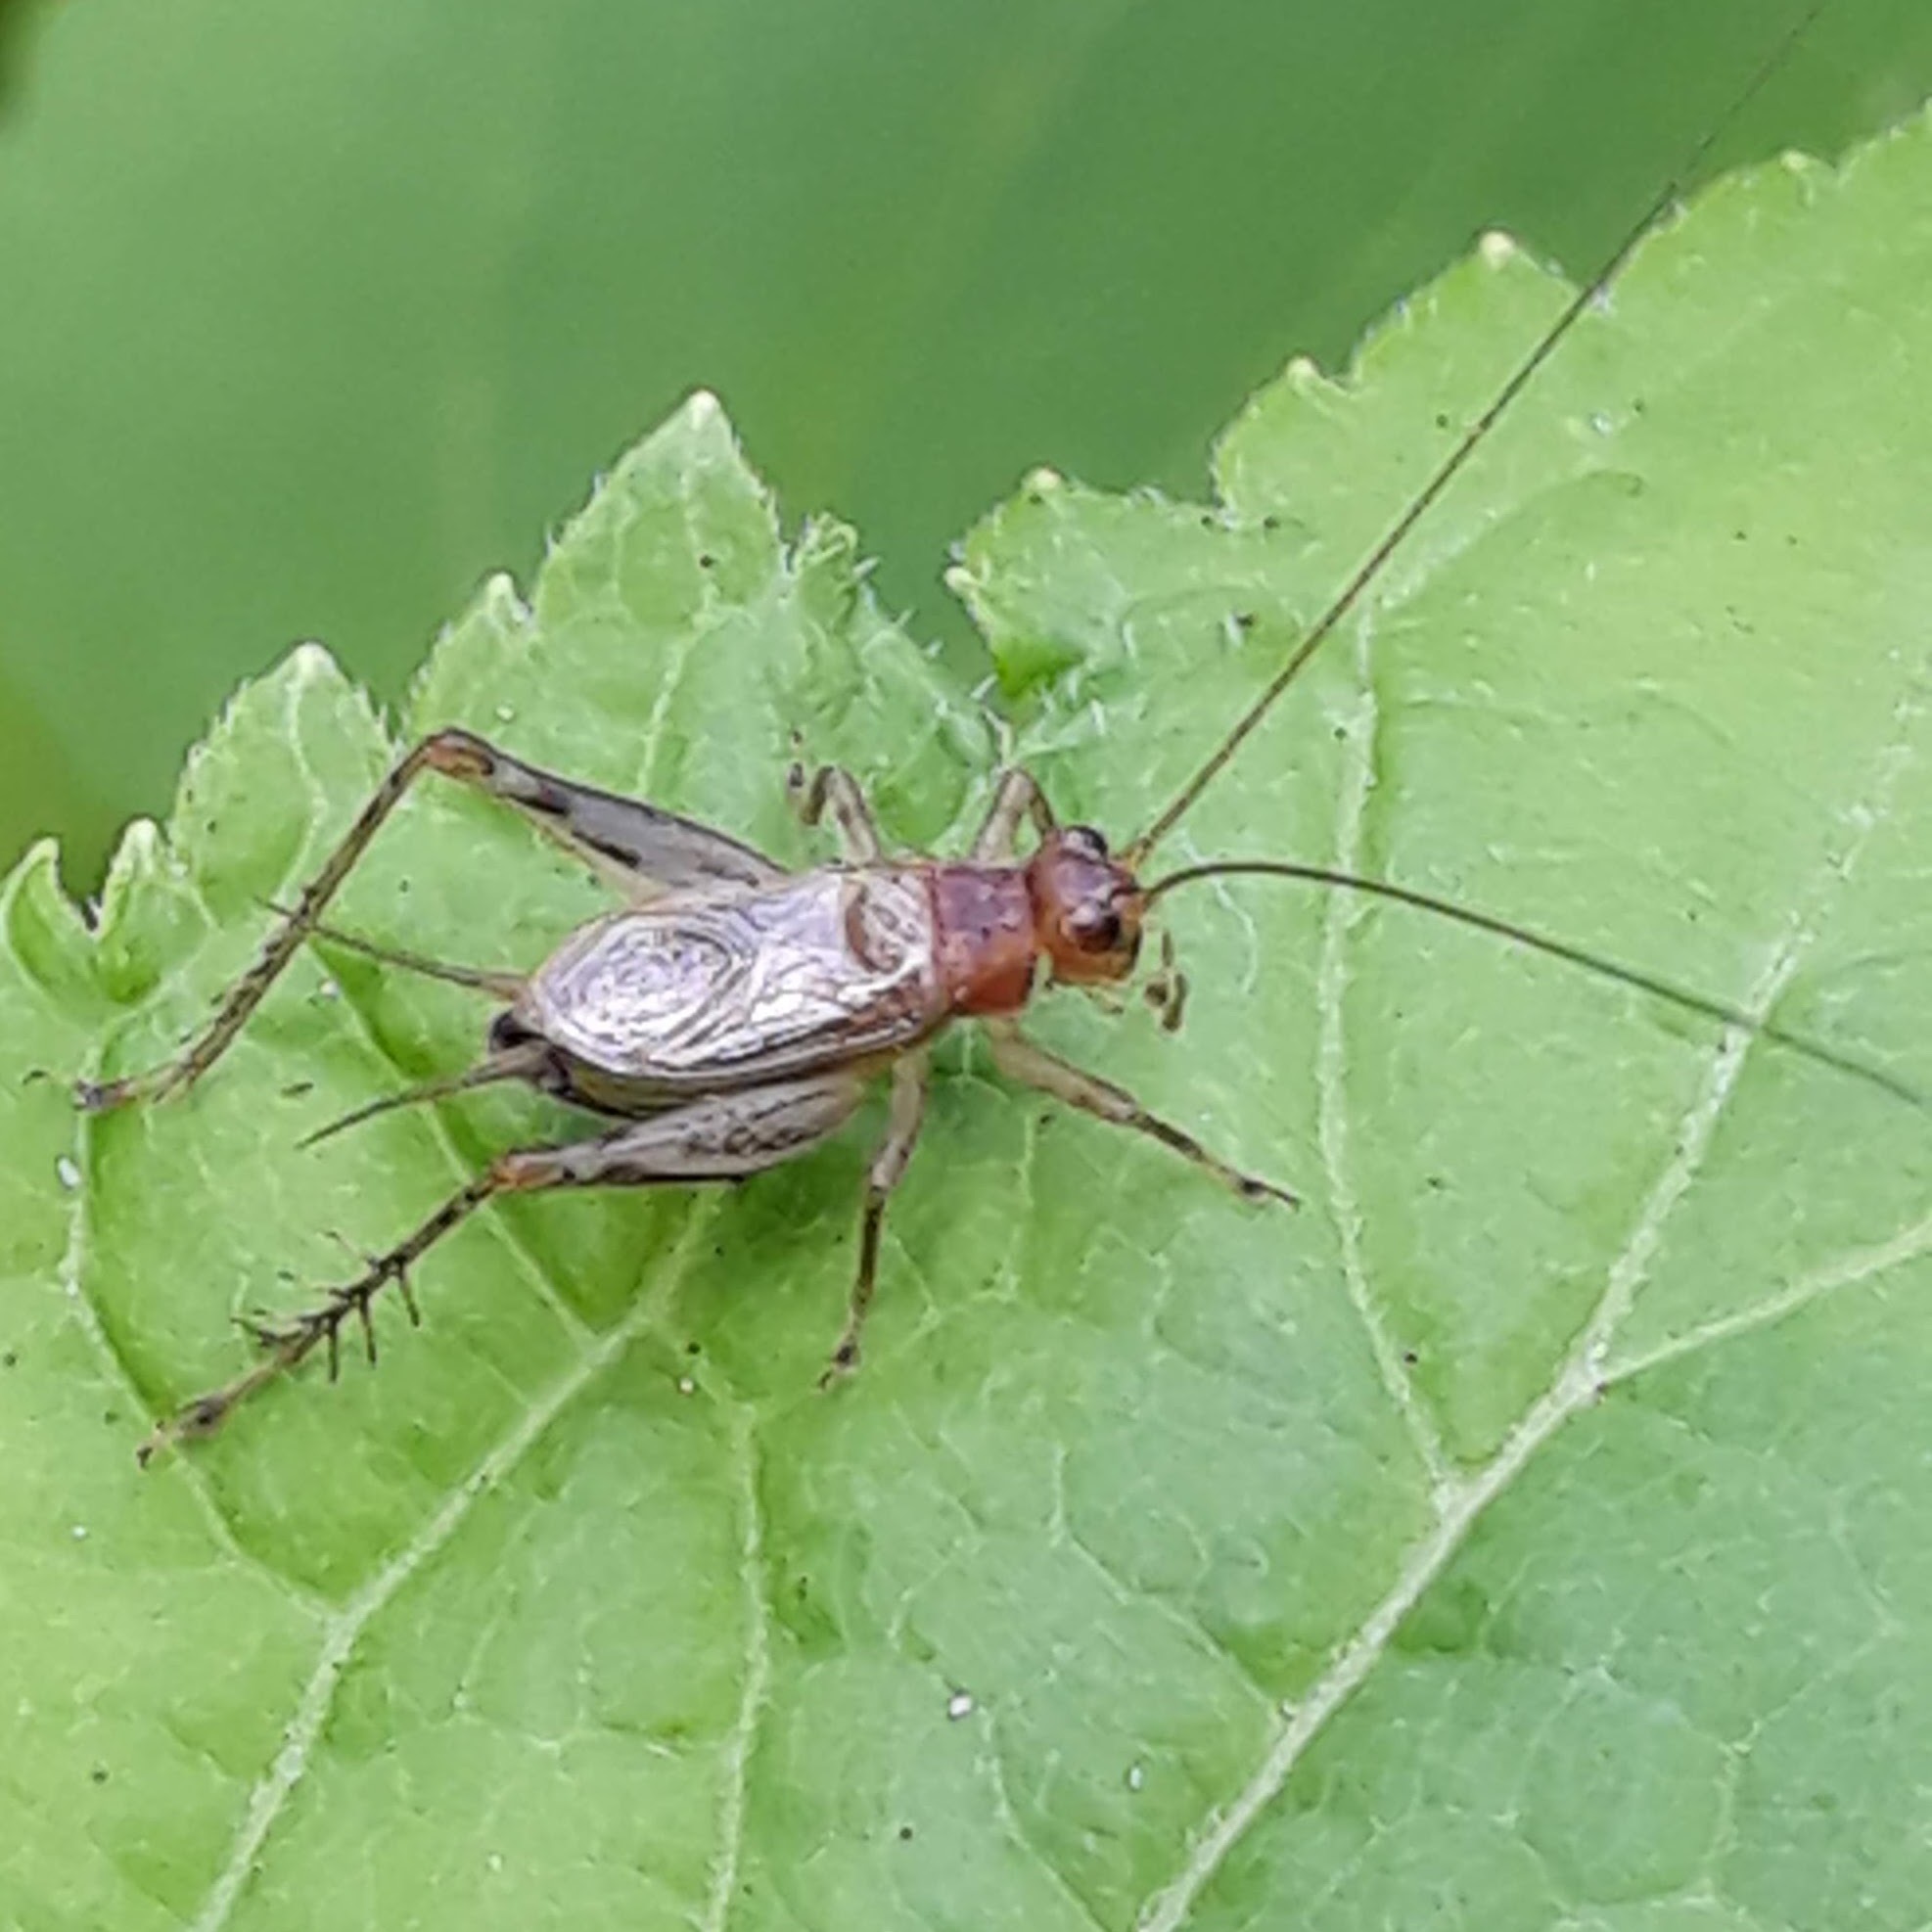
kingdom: Animalia
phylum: Arthropoda
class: Insecta
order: Orthoptera
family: Trigonidiidae
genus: Anaxipha
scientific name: Anaxipha exigua
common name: Say's bush cricket
